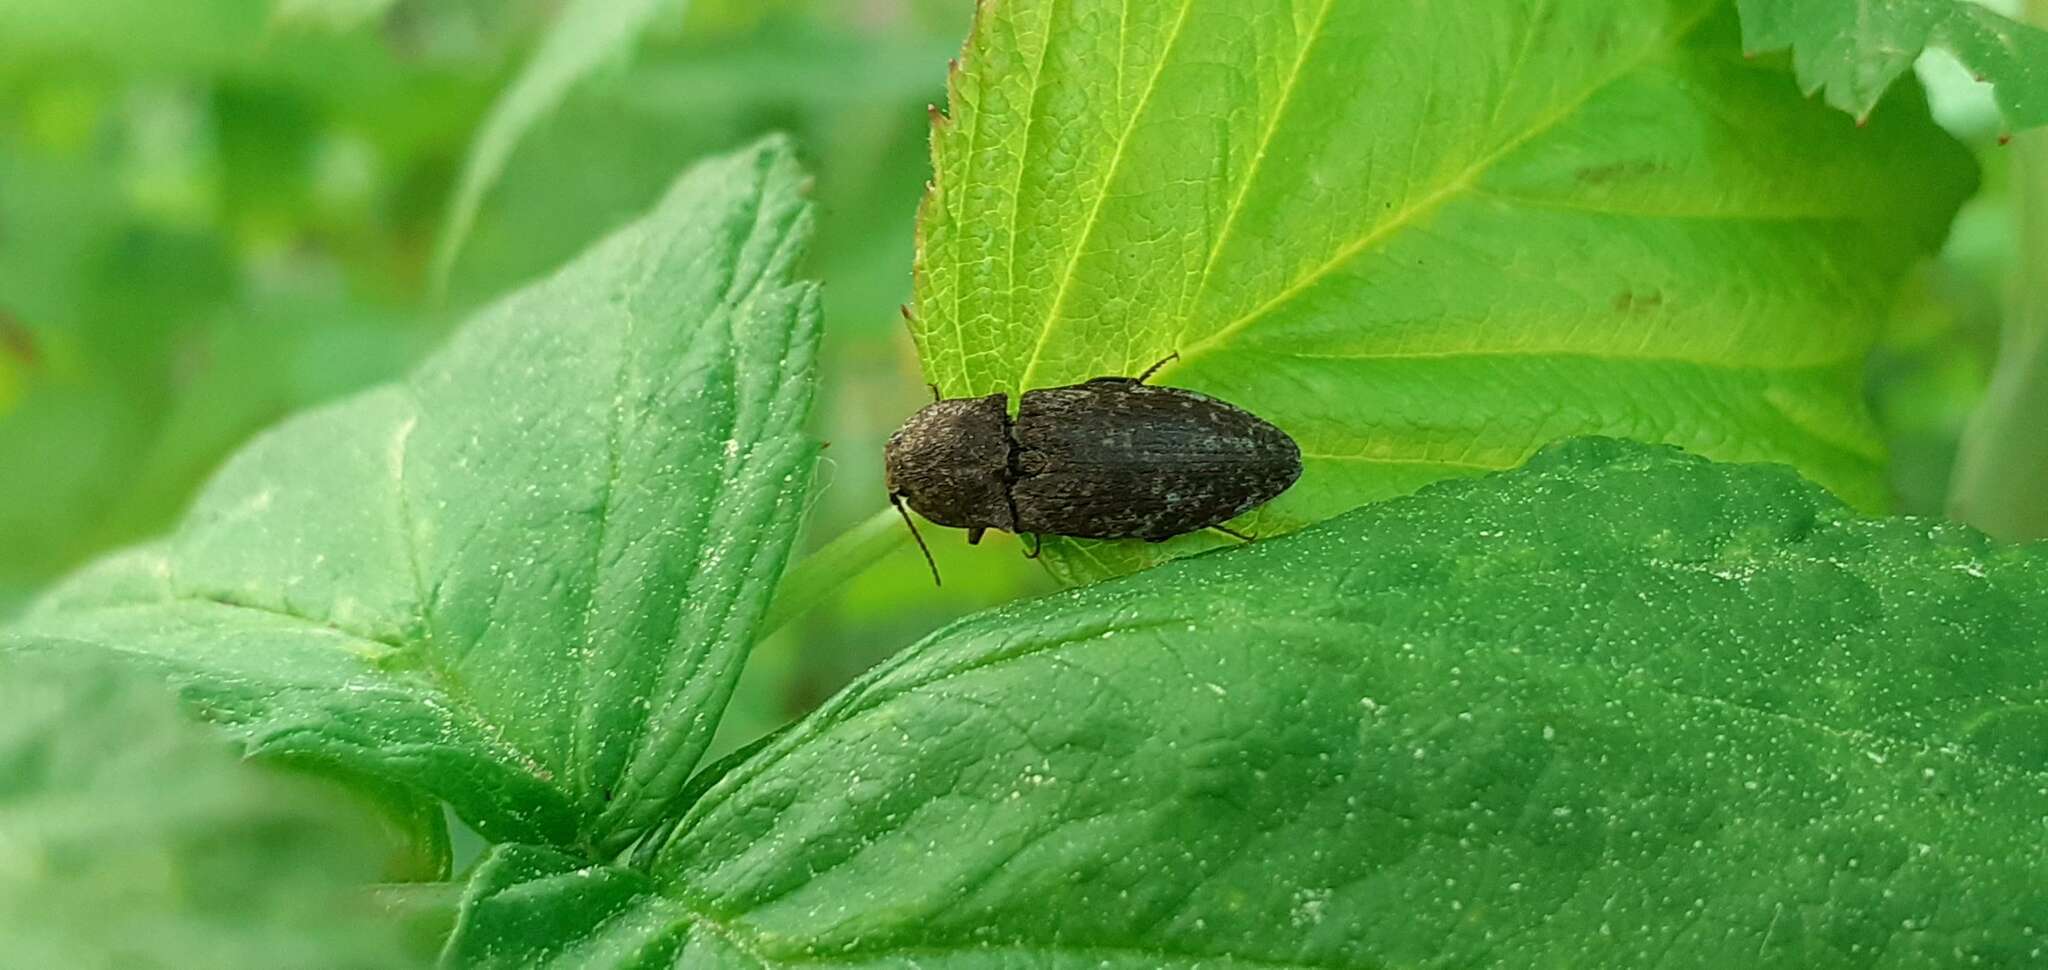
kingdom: Animalia
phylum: Arthropoda
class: Insecta
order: Coleoptera
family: Elateridae
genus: Agrypnus
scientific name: Agrypnus murinus
